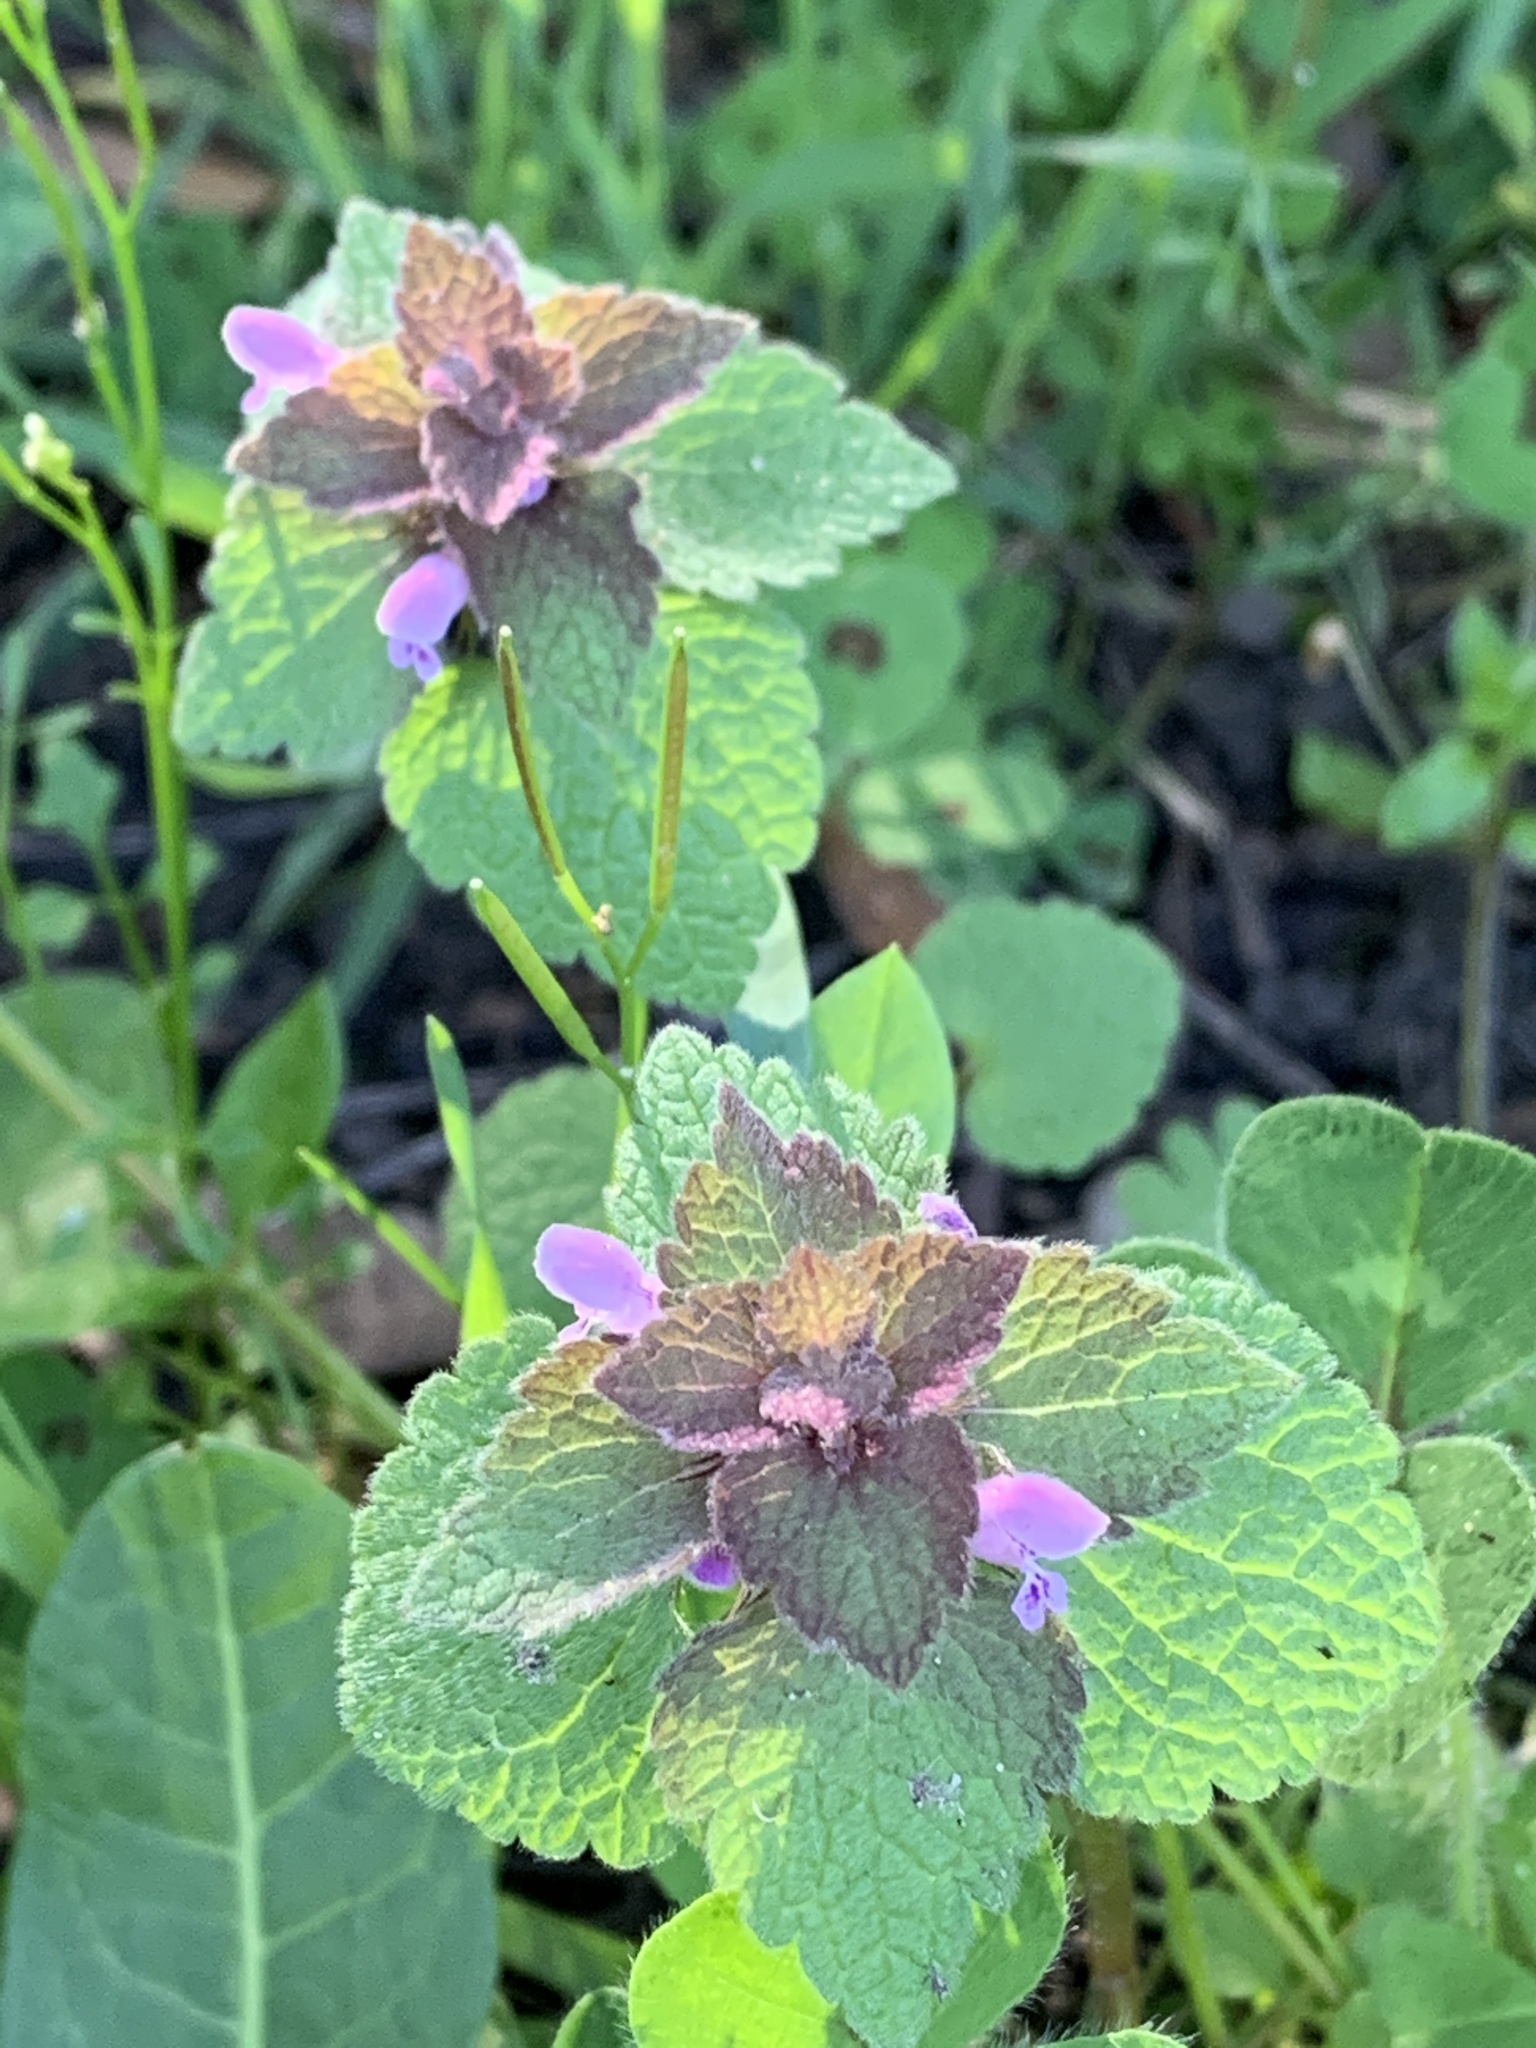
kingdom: Plantae
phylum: Tracheophyta
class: Magnoliopsida
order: Lamiales
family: Lamiaceae
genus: Lamium
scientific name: Lamium purpureum
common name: Red dead-nettle
